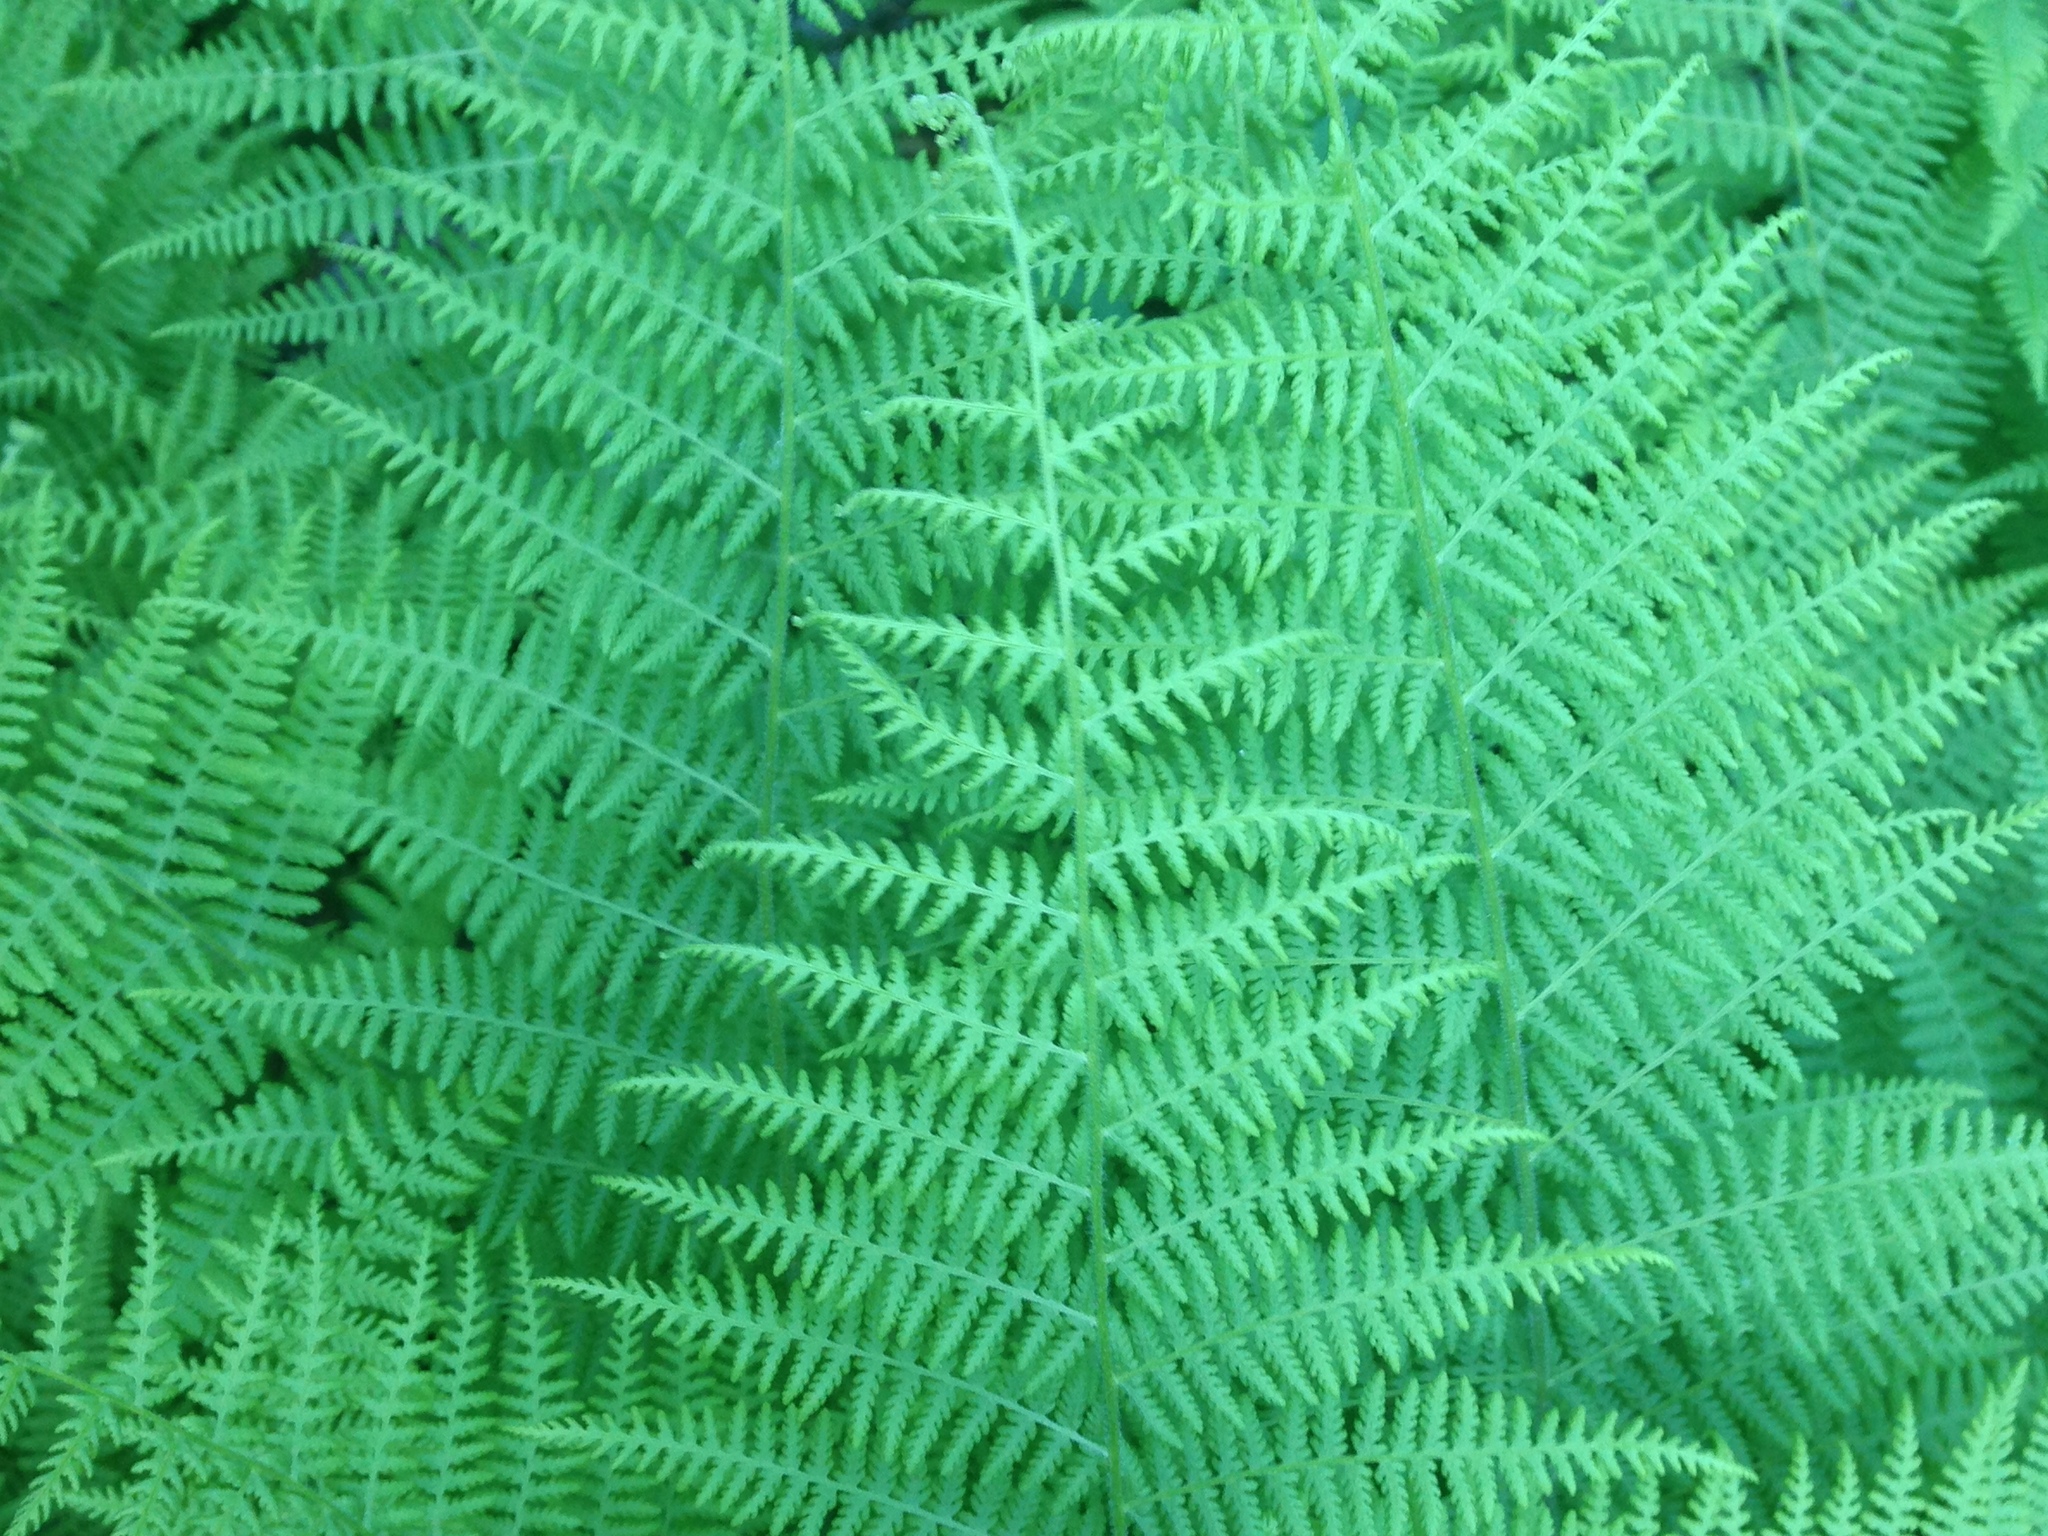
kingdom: Plantae
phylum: Tracheophyta
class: Polypodiopsida
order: Polypodiales
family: Dennstaedtiaceae
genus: Sitobolium
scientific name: Sitobolium punctilobum
